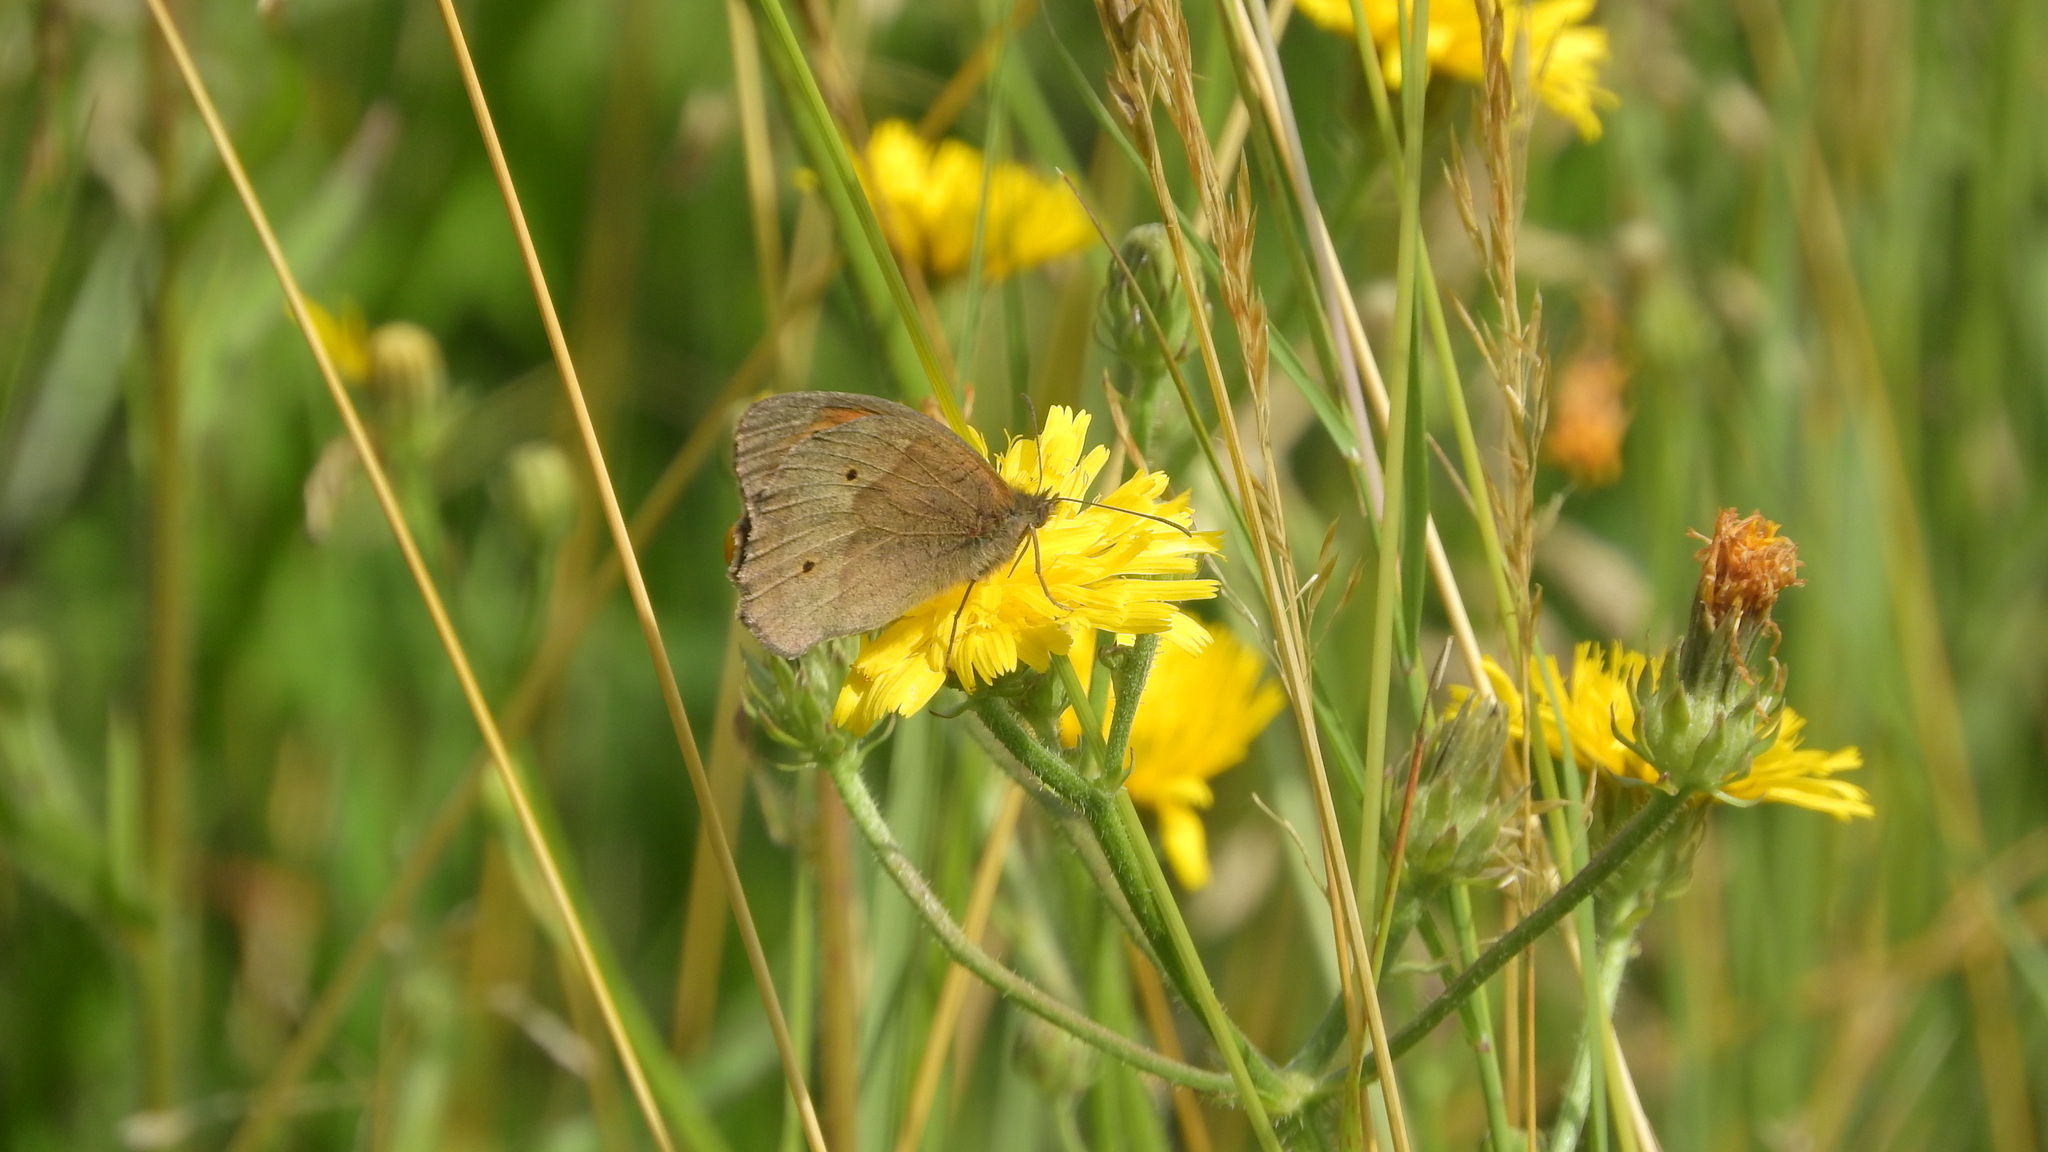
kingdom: Animalia
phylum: Arthropoda
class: Insecta
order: Lepidoptera
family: Nymphalidae
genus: Maniola
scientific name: Maniola jurtina
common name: Meadow brown
